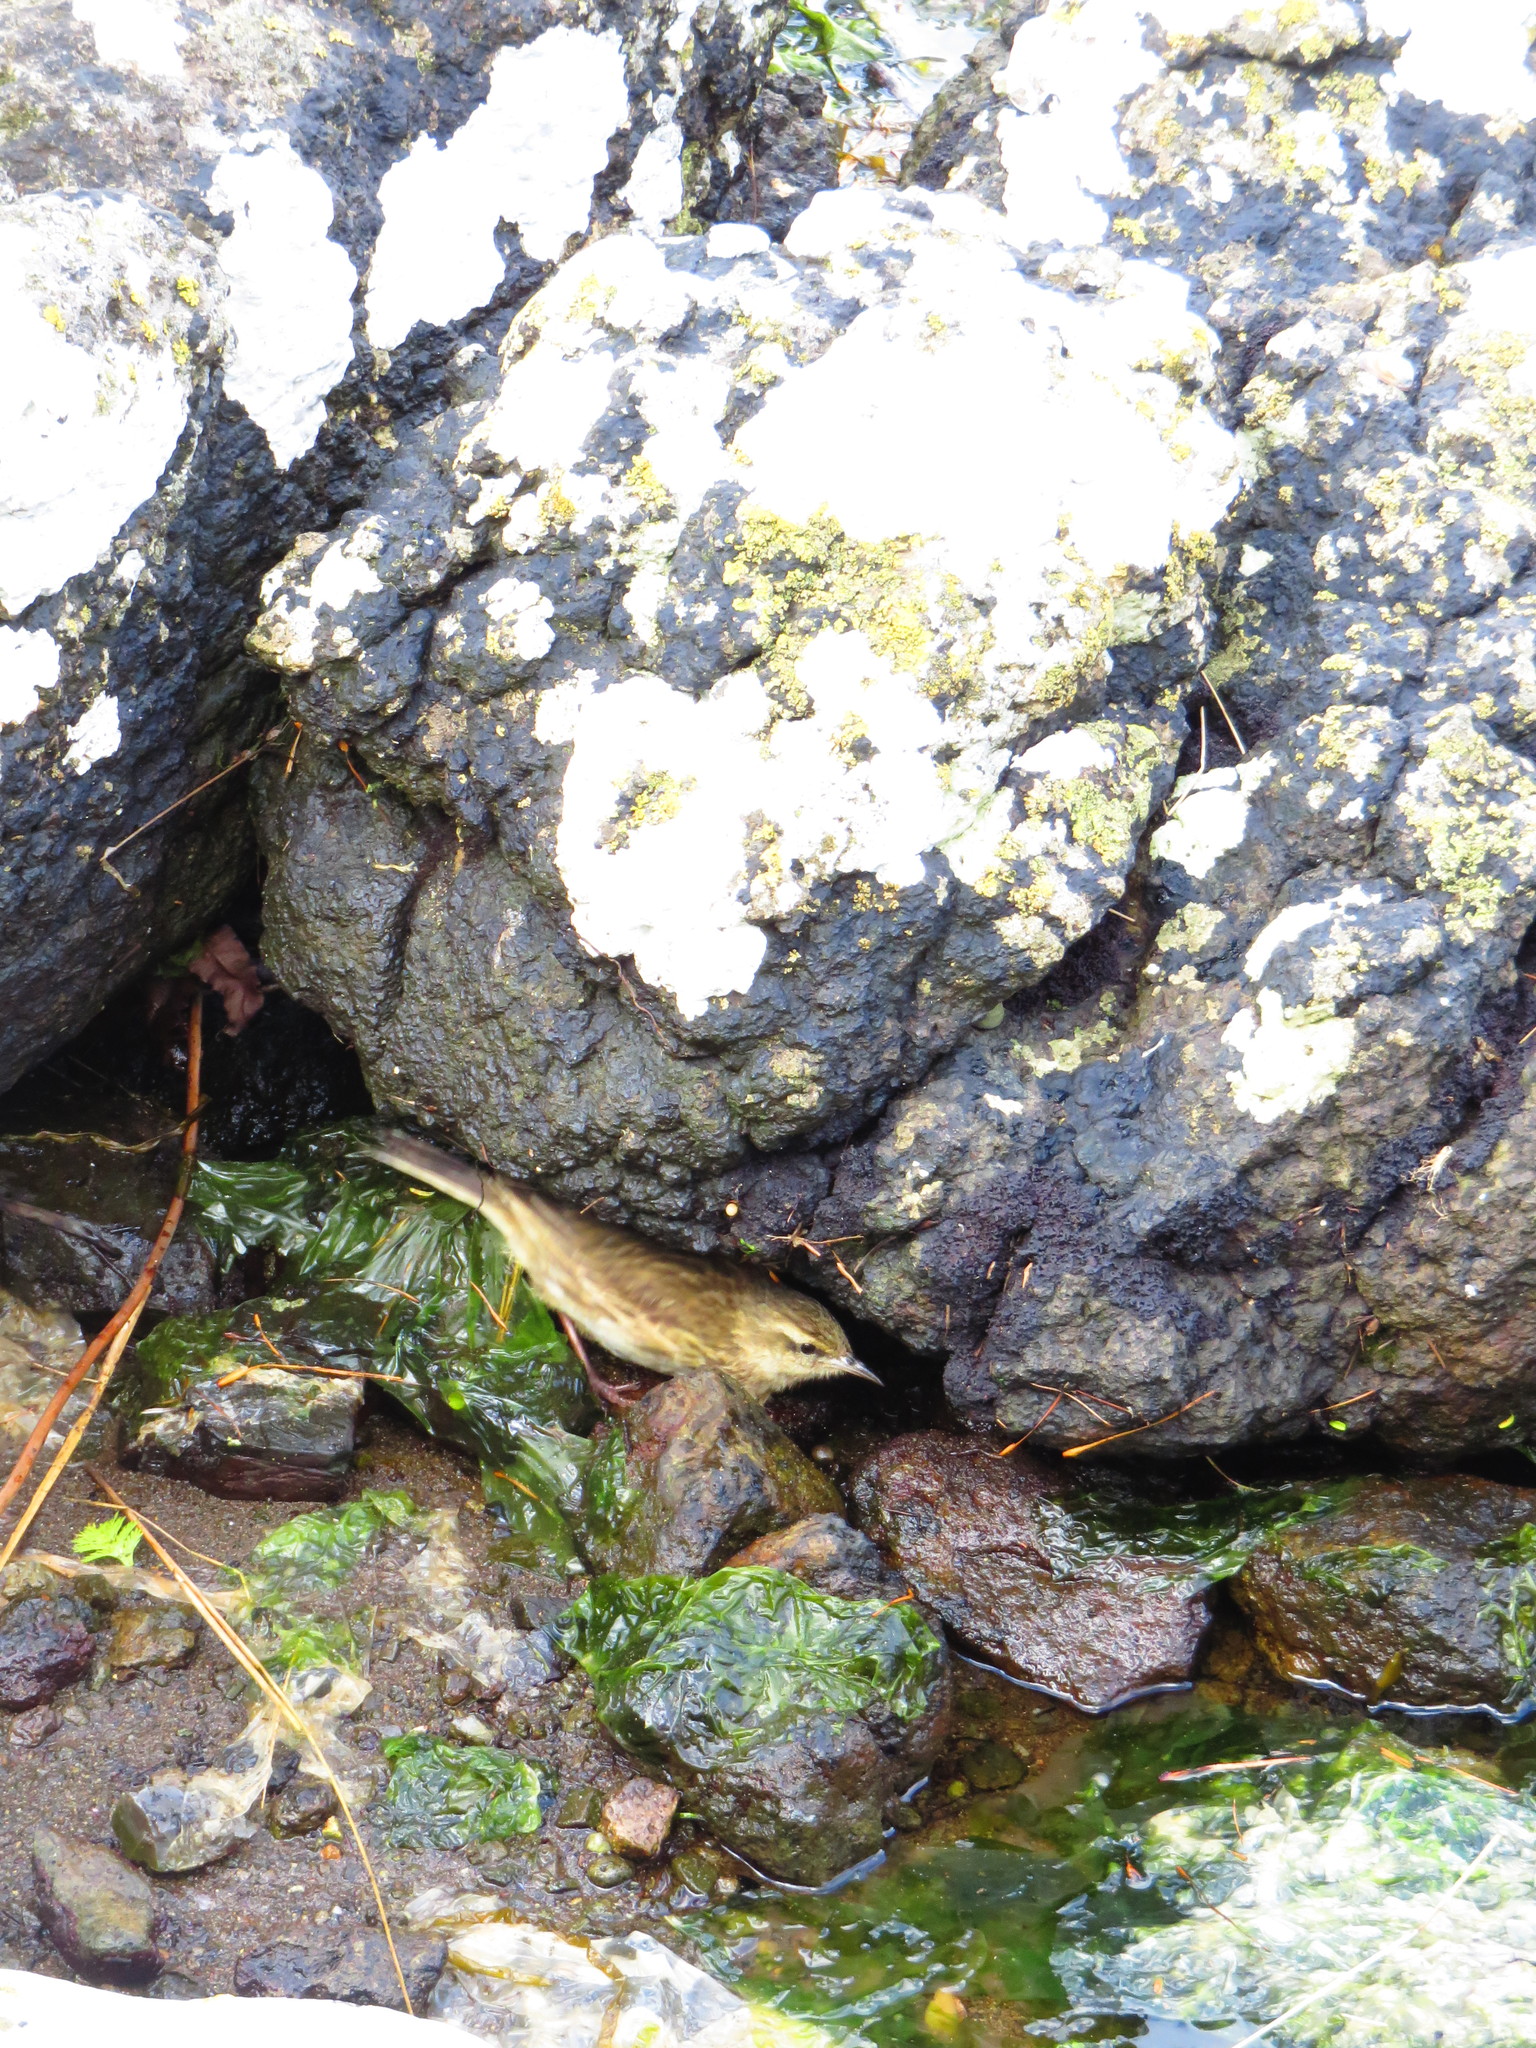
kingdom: Animalia
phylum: Chordata
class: Aves
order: Passeriformes
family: Motacillidae
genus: Anthus
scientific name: Anthus novaeseelandiae
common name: New zealand pipit
